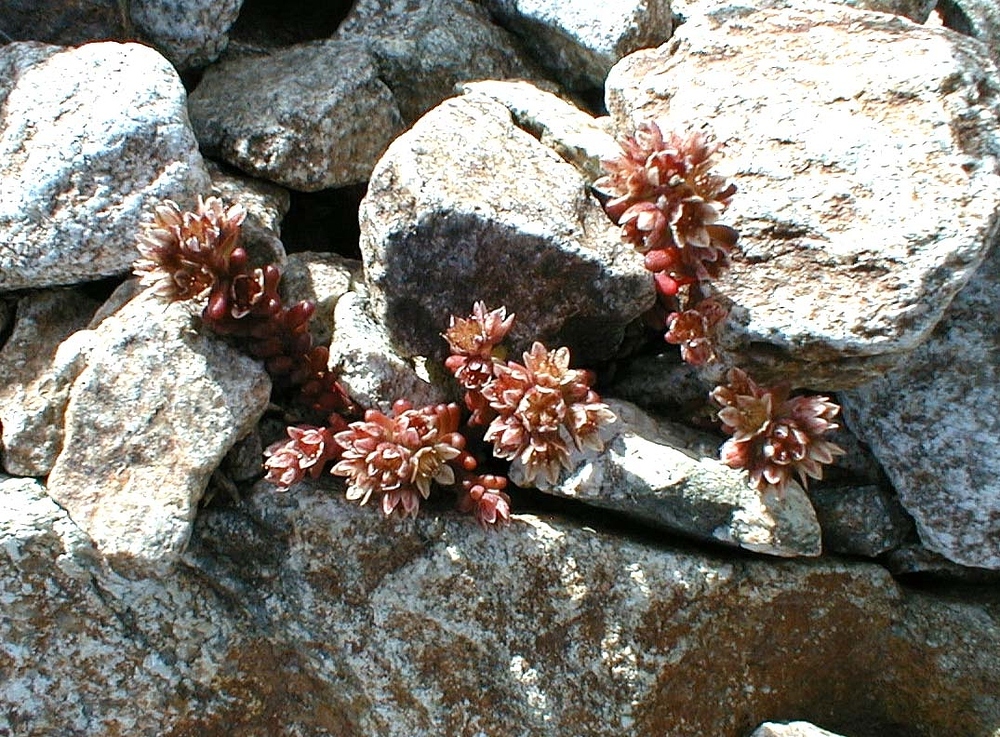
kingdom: Plantae
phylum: Tracheophyta
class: Magnoliopsida
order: Saxifragales
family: Crassulaceae
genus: Sedum
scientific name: Sedum atratum
